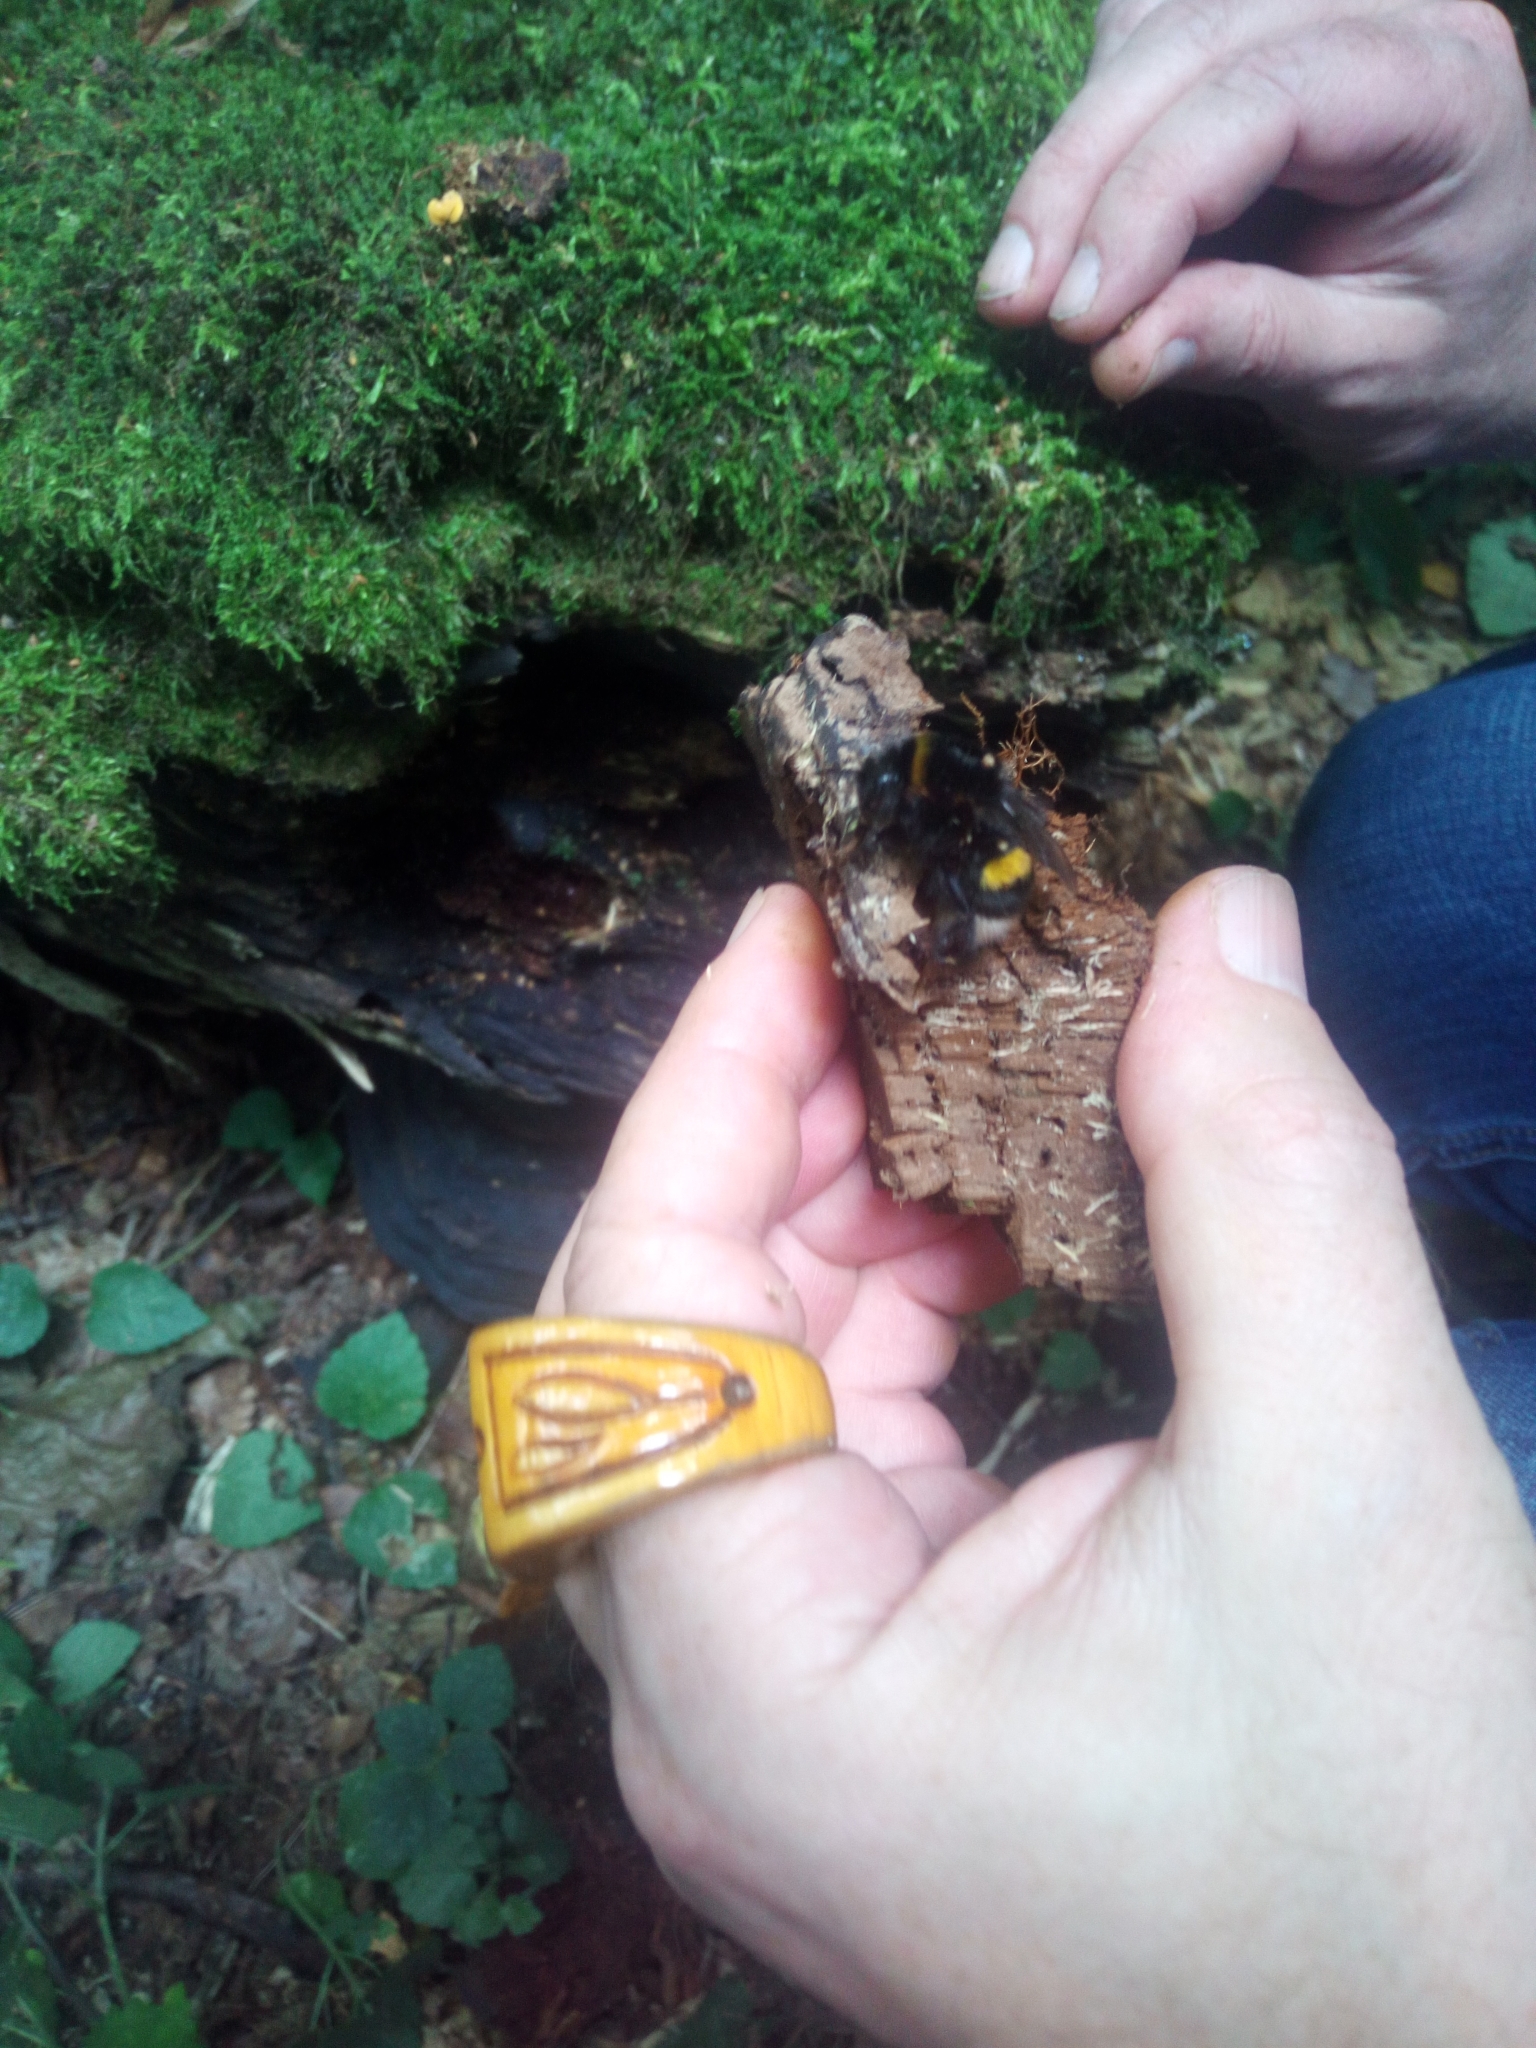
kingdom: Animalia
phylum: Arthropoda
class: Insecta
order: Hymenoptera
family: Apidae
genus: Bombus
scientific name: Bombus terrestris
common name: Buff-tailed bumblebee
